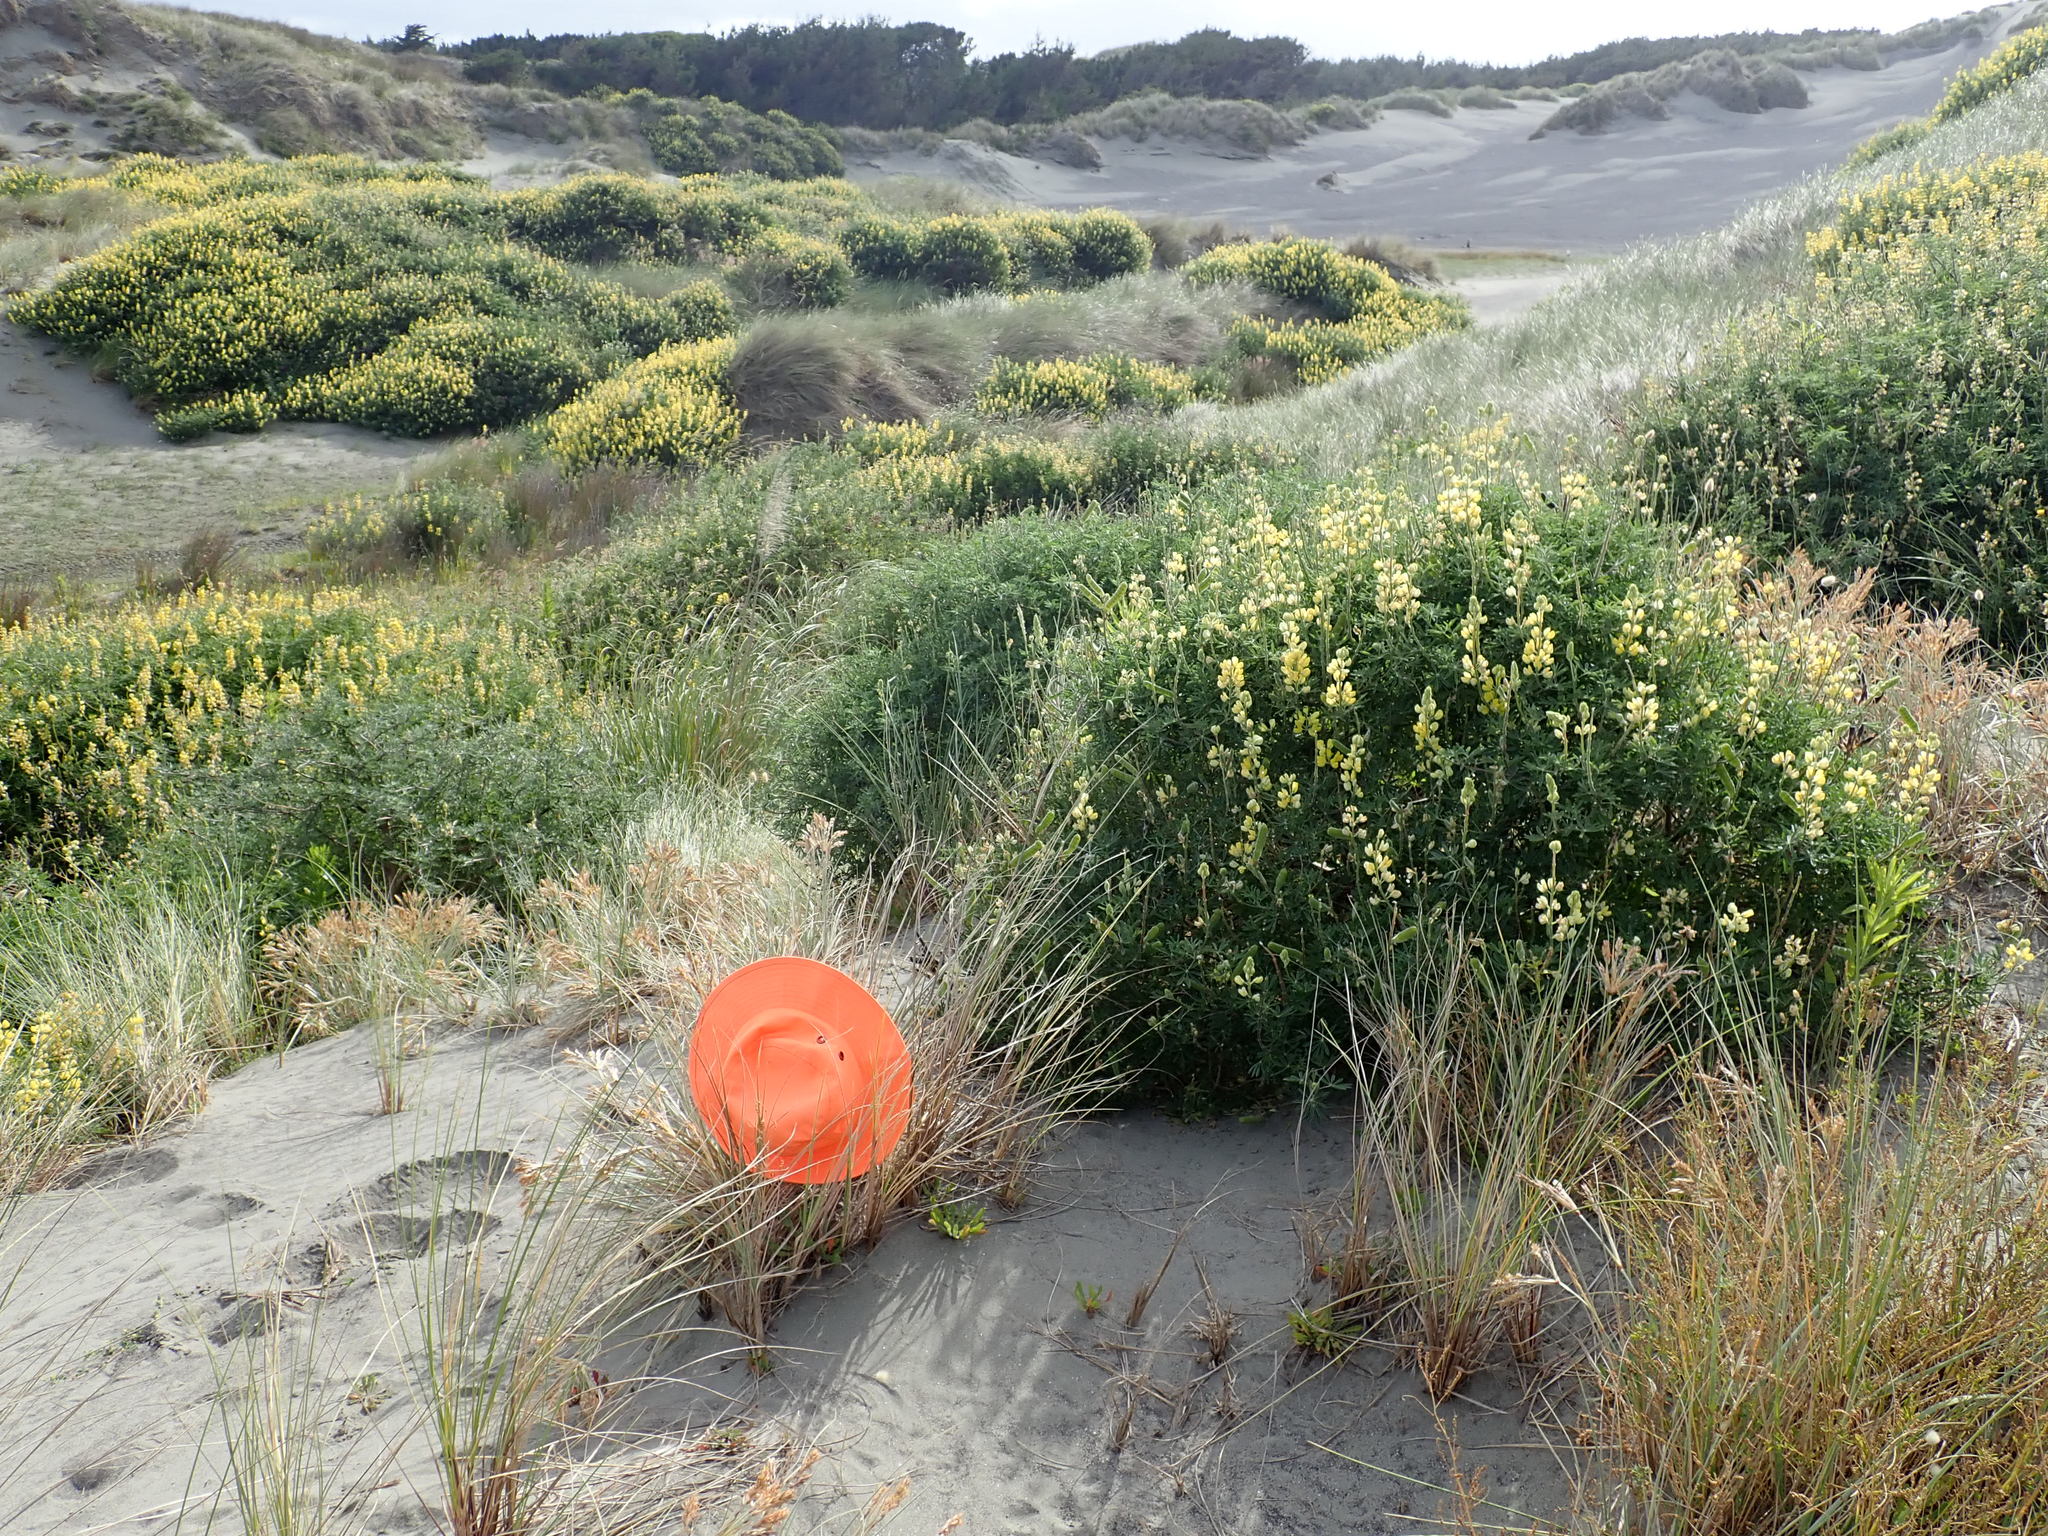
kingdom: Animalia
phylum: Arthropoda
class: Arachnida
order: Araneae
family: Theridiidae
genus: Latrodectus
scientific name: Latrodectus katipo
